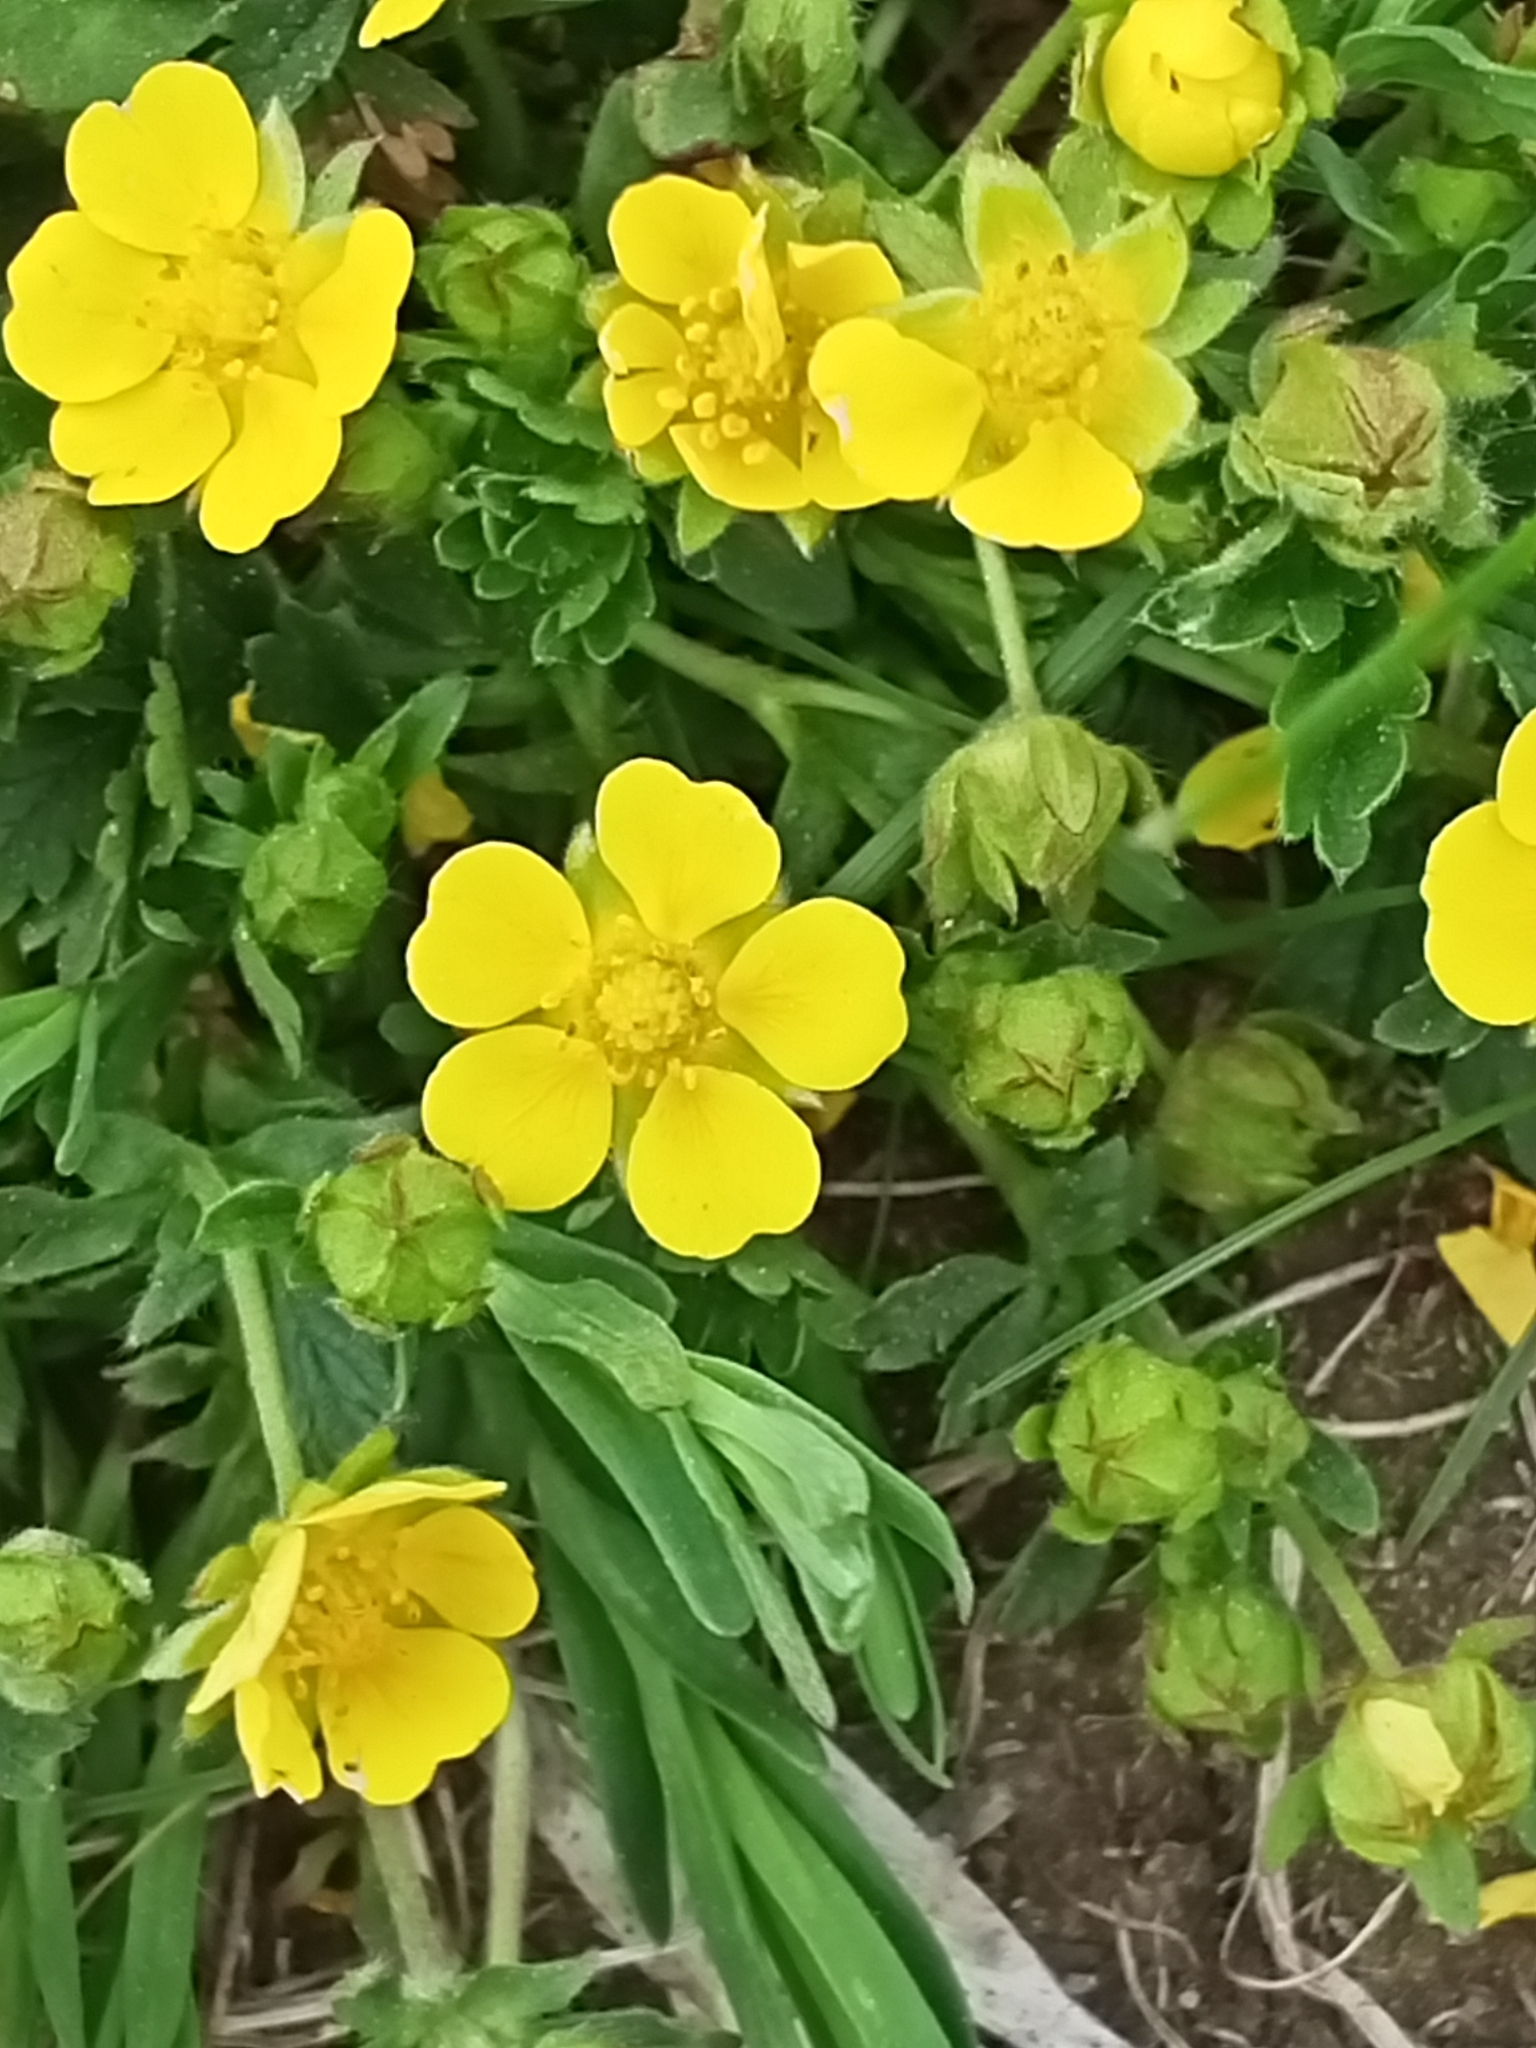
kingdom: Plantae
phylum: Tracheophyta
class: Magnoliopsida
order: Rosales
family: Rosaceae
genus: Potentilla
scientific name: Potentilla verna
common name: Spring cinquefoil
